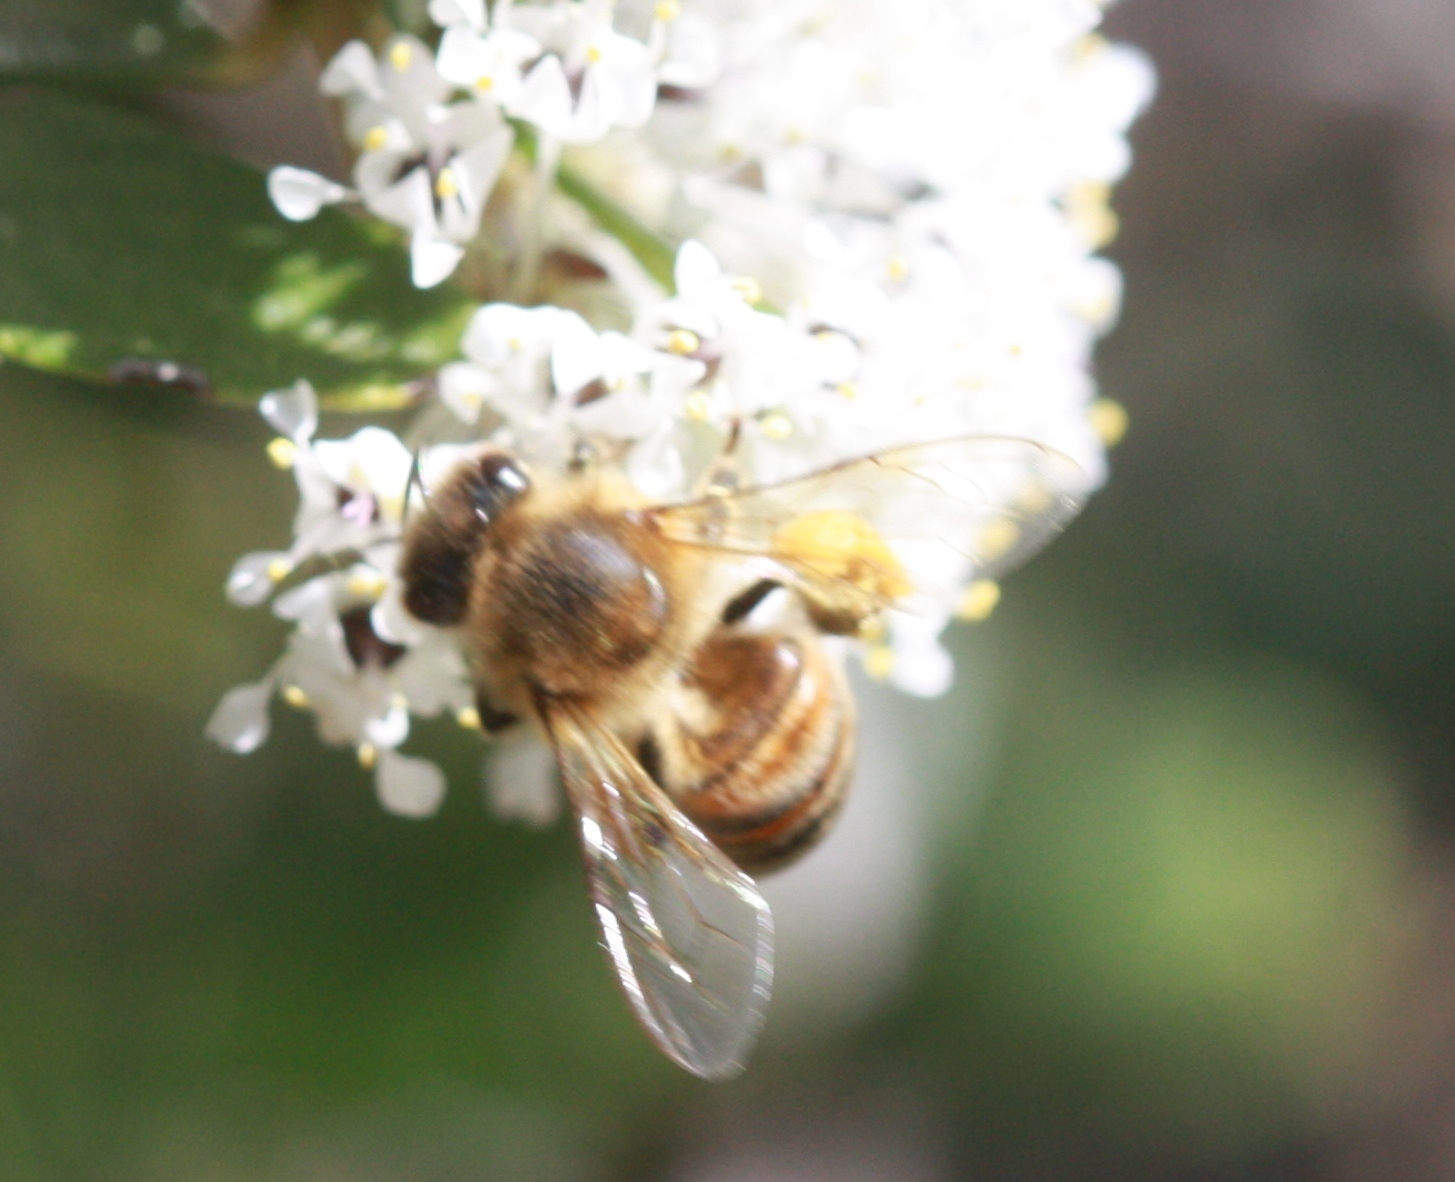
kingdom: Animalia
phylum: Arthropoda
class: Insecta
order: Hymenoptera
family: Apidae
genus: Apis
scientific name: Apis mellifera
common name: Honey bee
